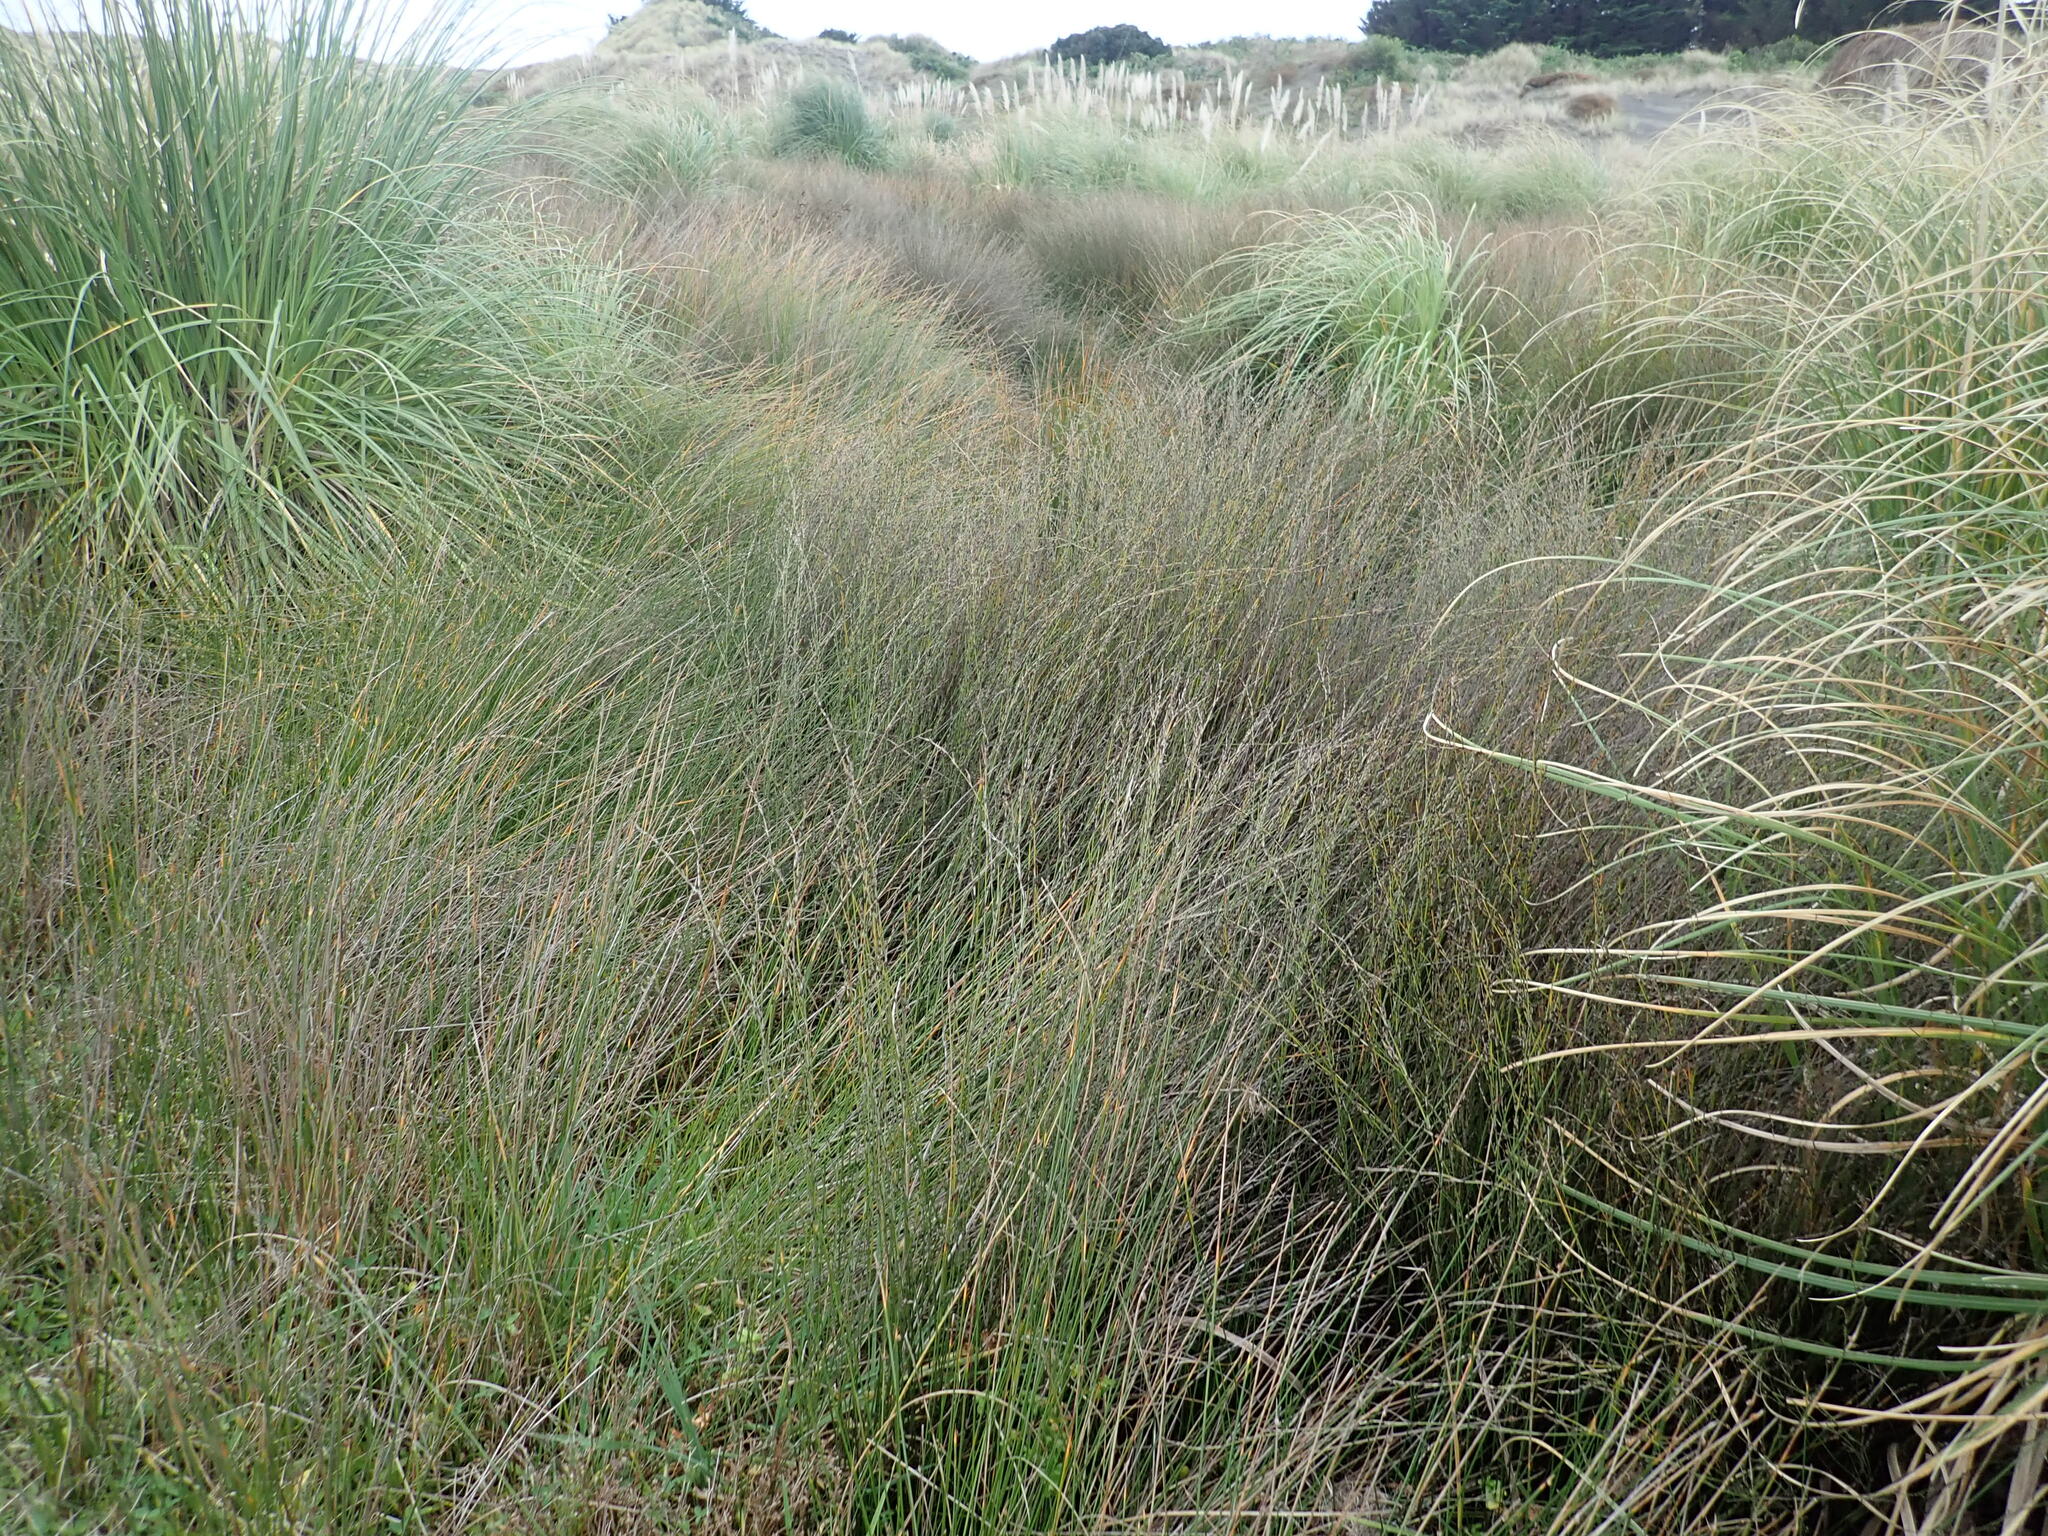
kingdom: Plantae
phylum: Tracheophyta
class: Liliopsida
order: Poales
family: Restionaceae
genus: Apodasmia
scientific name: Apodasmia similis
